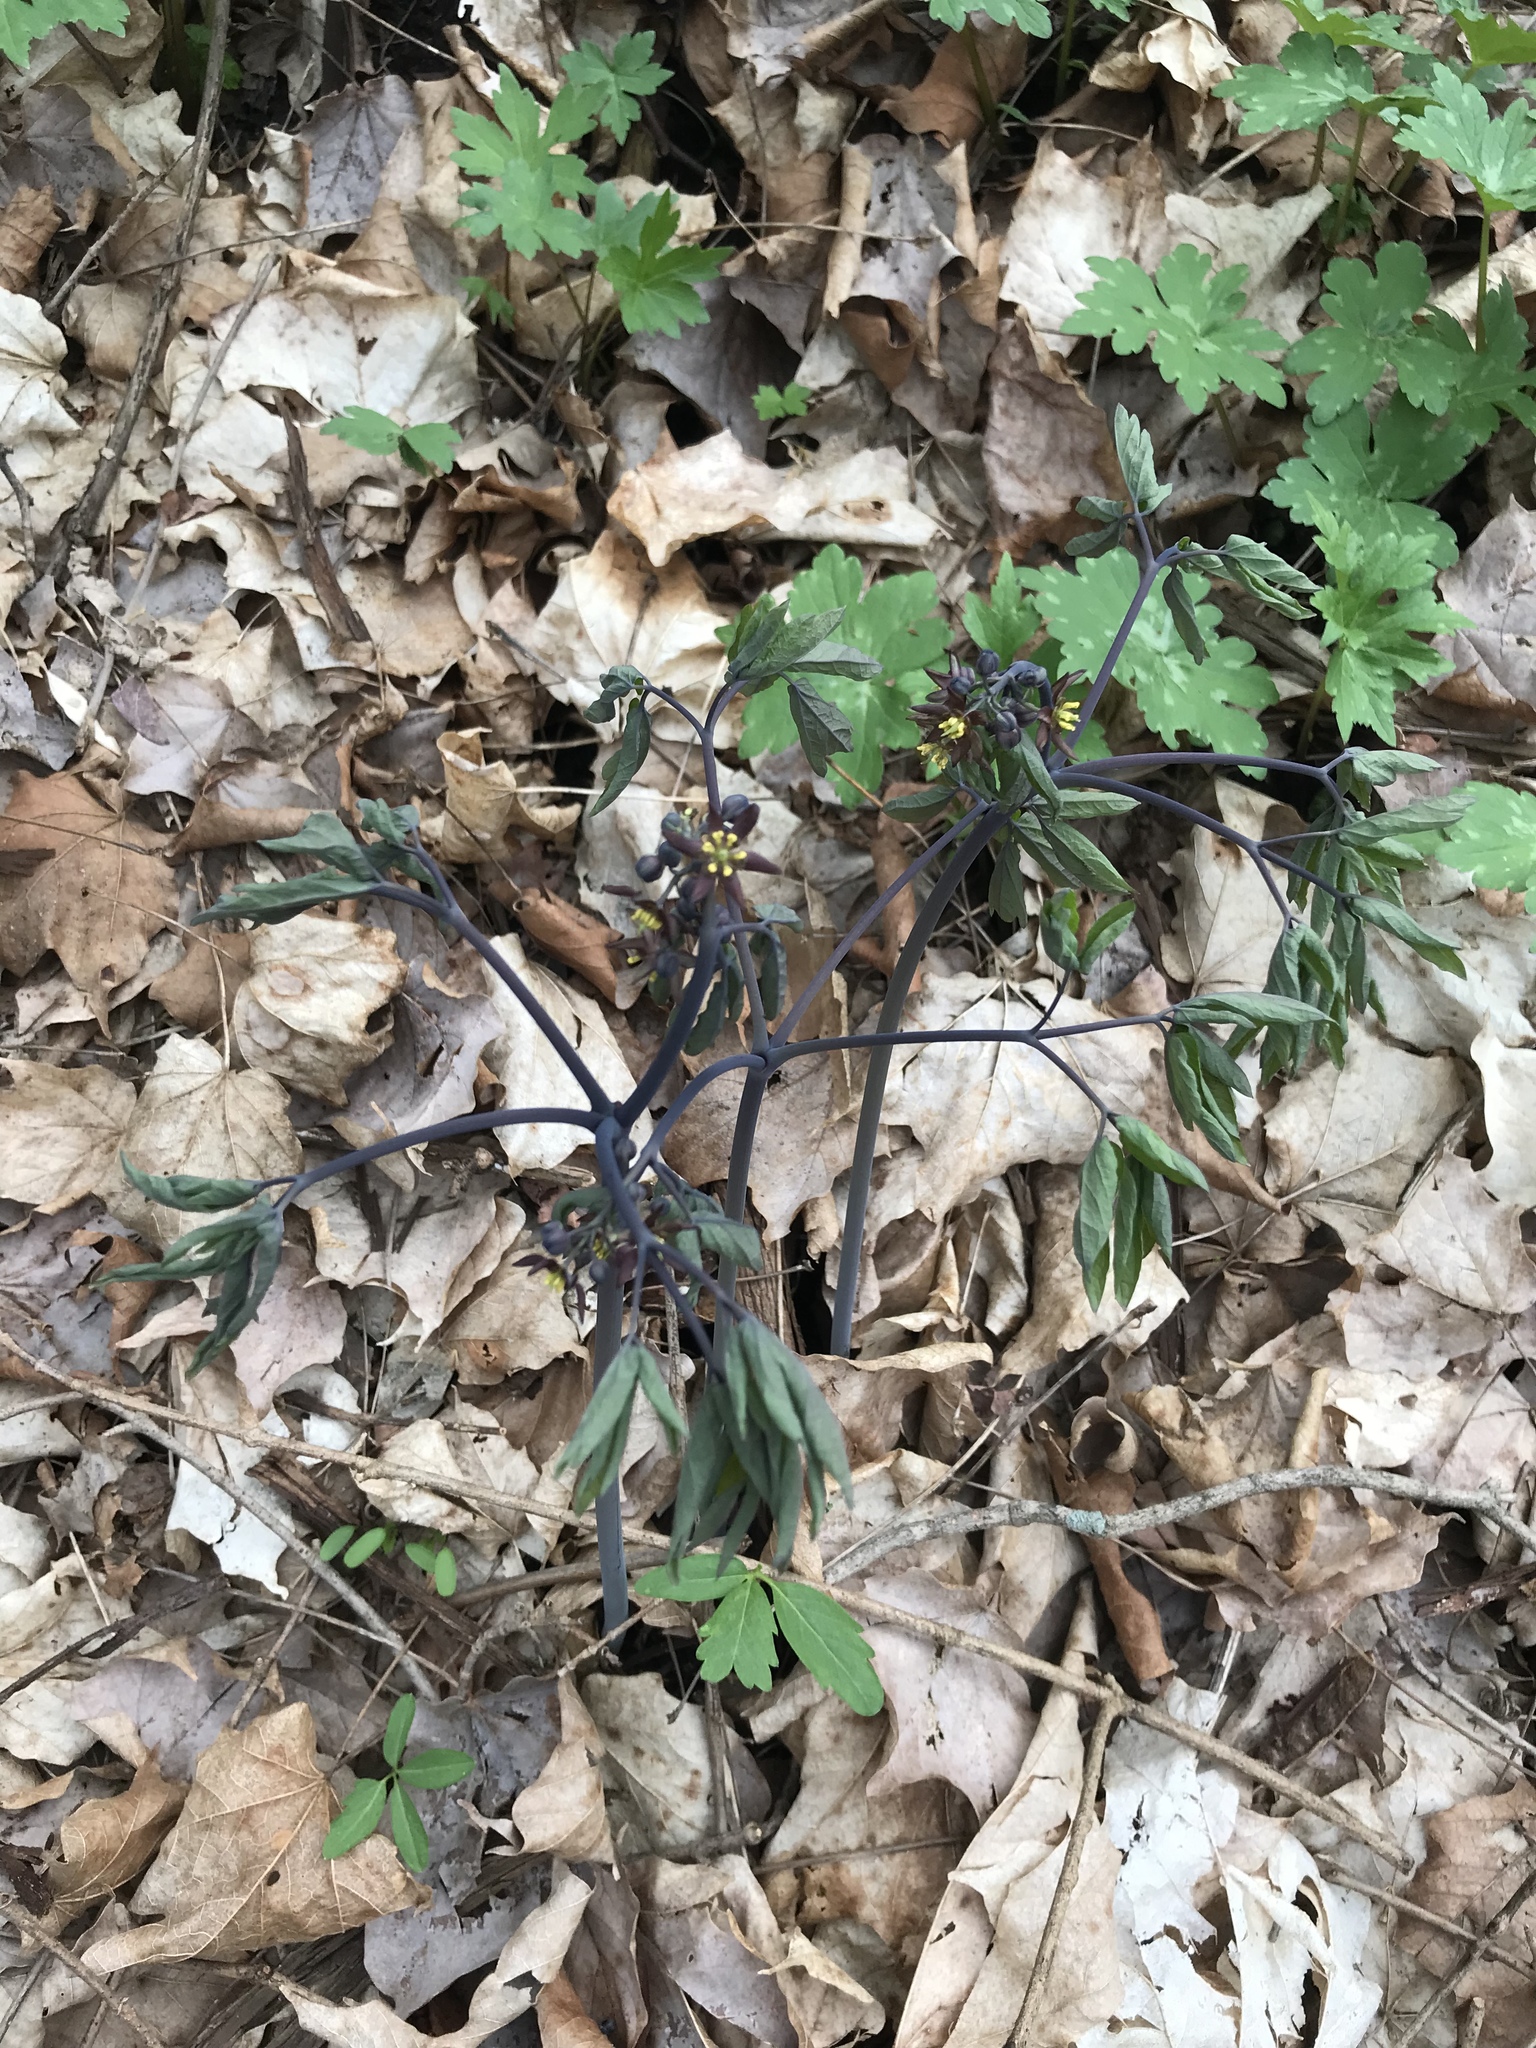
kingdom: Plantae
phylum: Tracheophyta
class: Magnoliopsida
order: Ranunculales
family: Berberidaceae
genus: Caulophyllum
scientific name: Caulophyllum giganteum
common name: Blue cohosh
